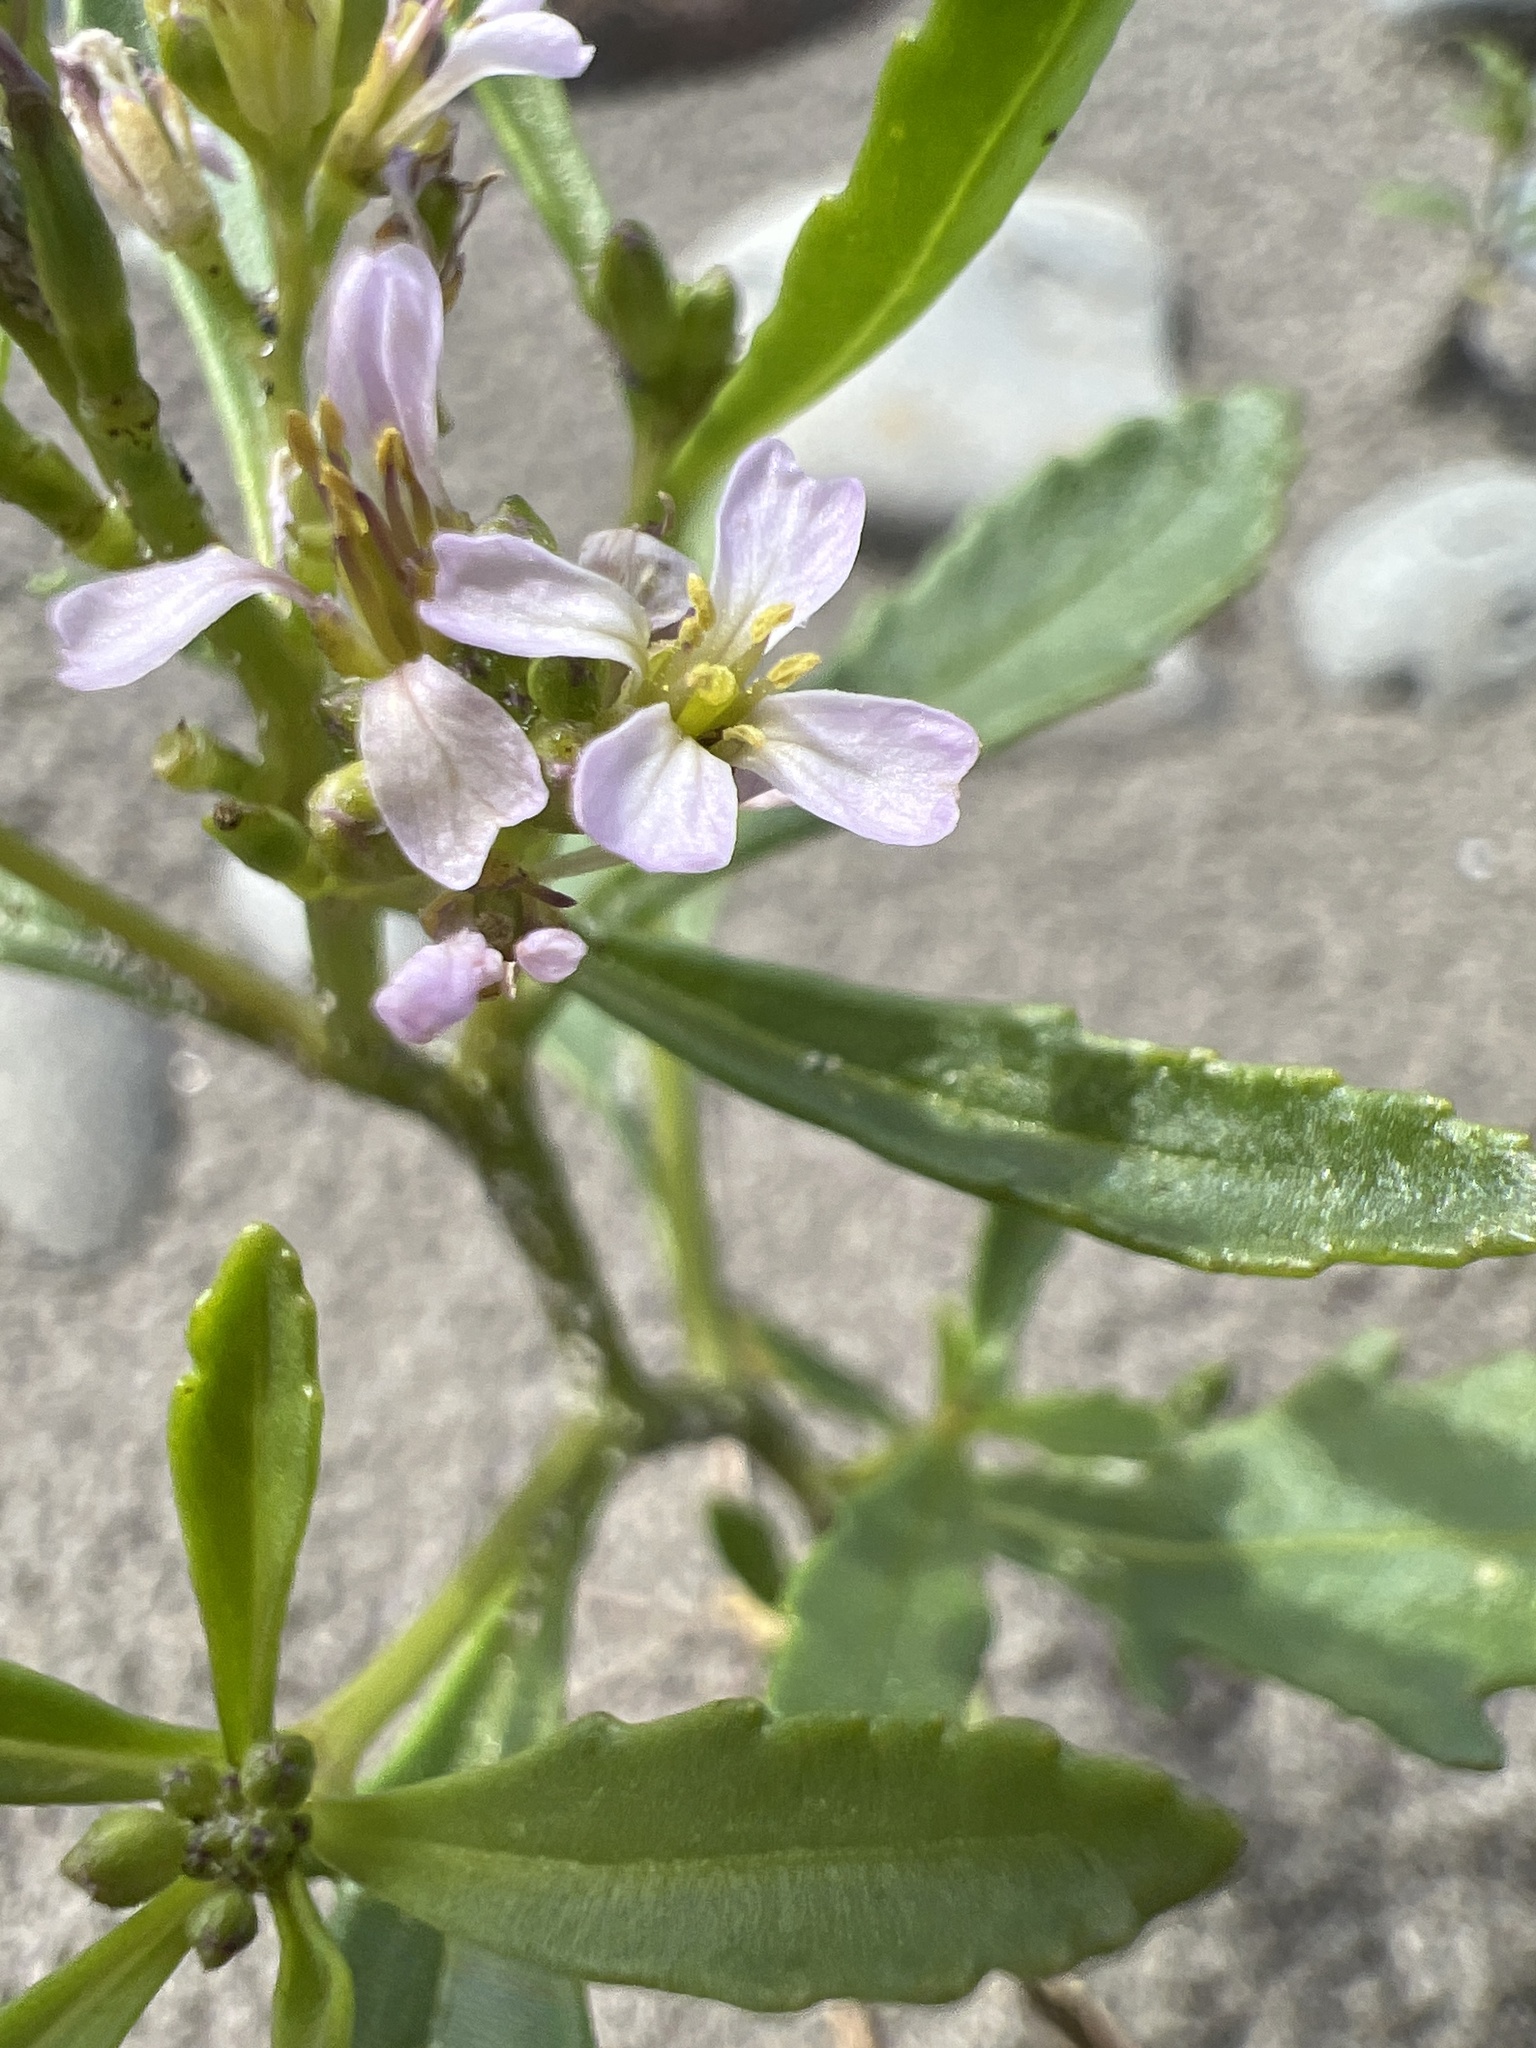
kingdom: Plantae
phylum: Tracheophyta
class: Magnoliopsida
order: Brassicales
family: Brassicaceae
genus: Cakile
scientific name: Cakile edentula
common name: American sea rocket
